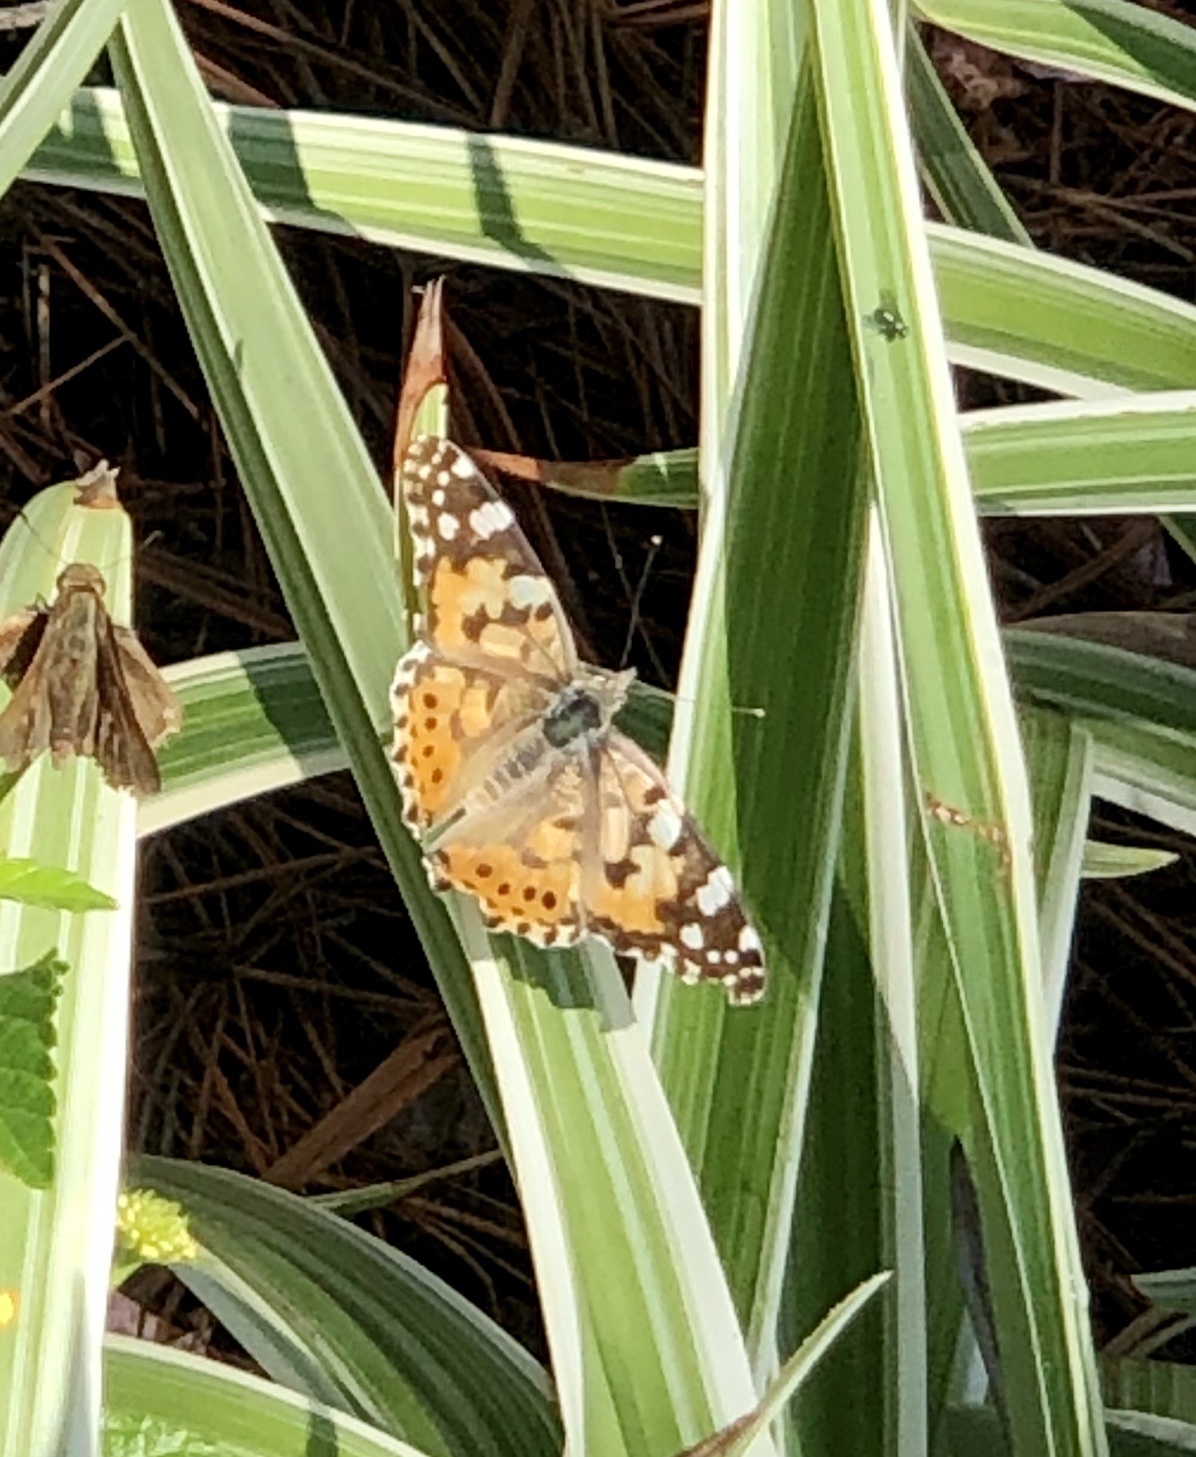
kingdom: Animalia
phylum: Arthropoda
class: Insecta
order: Lepidoptera
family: Nymphalidae
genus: Vanessa
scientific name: Vanessa cardui
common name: Painted lady
